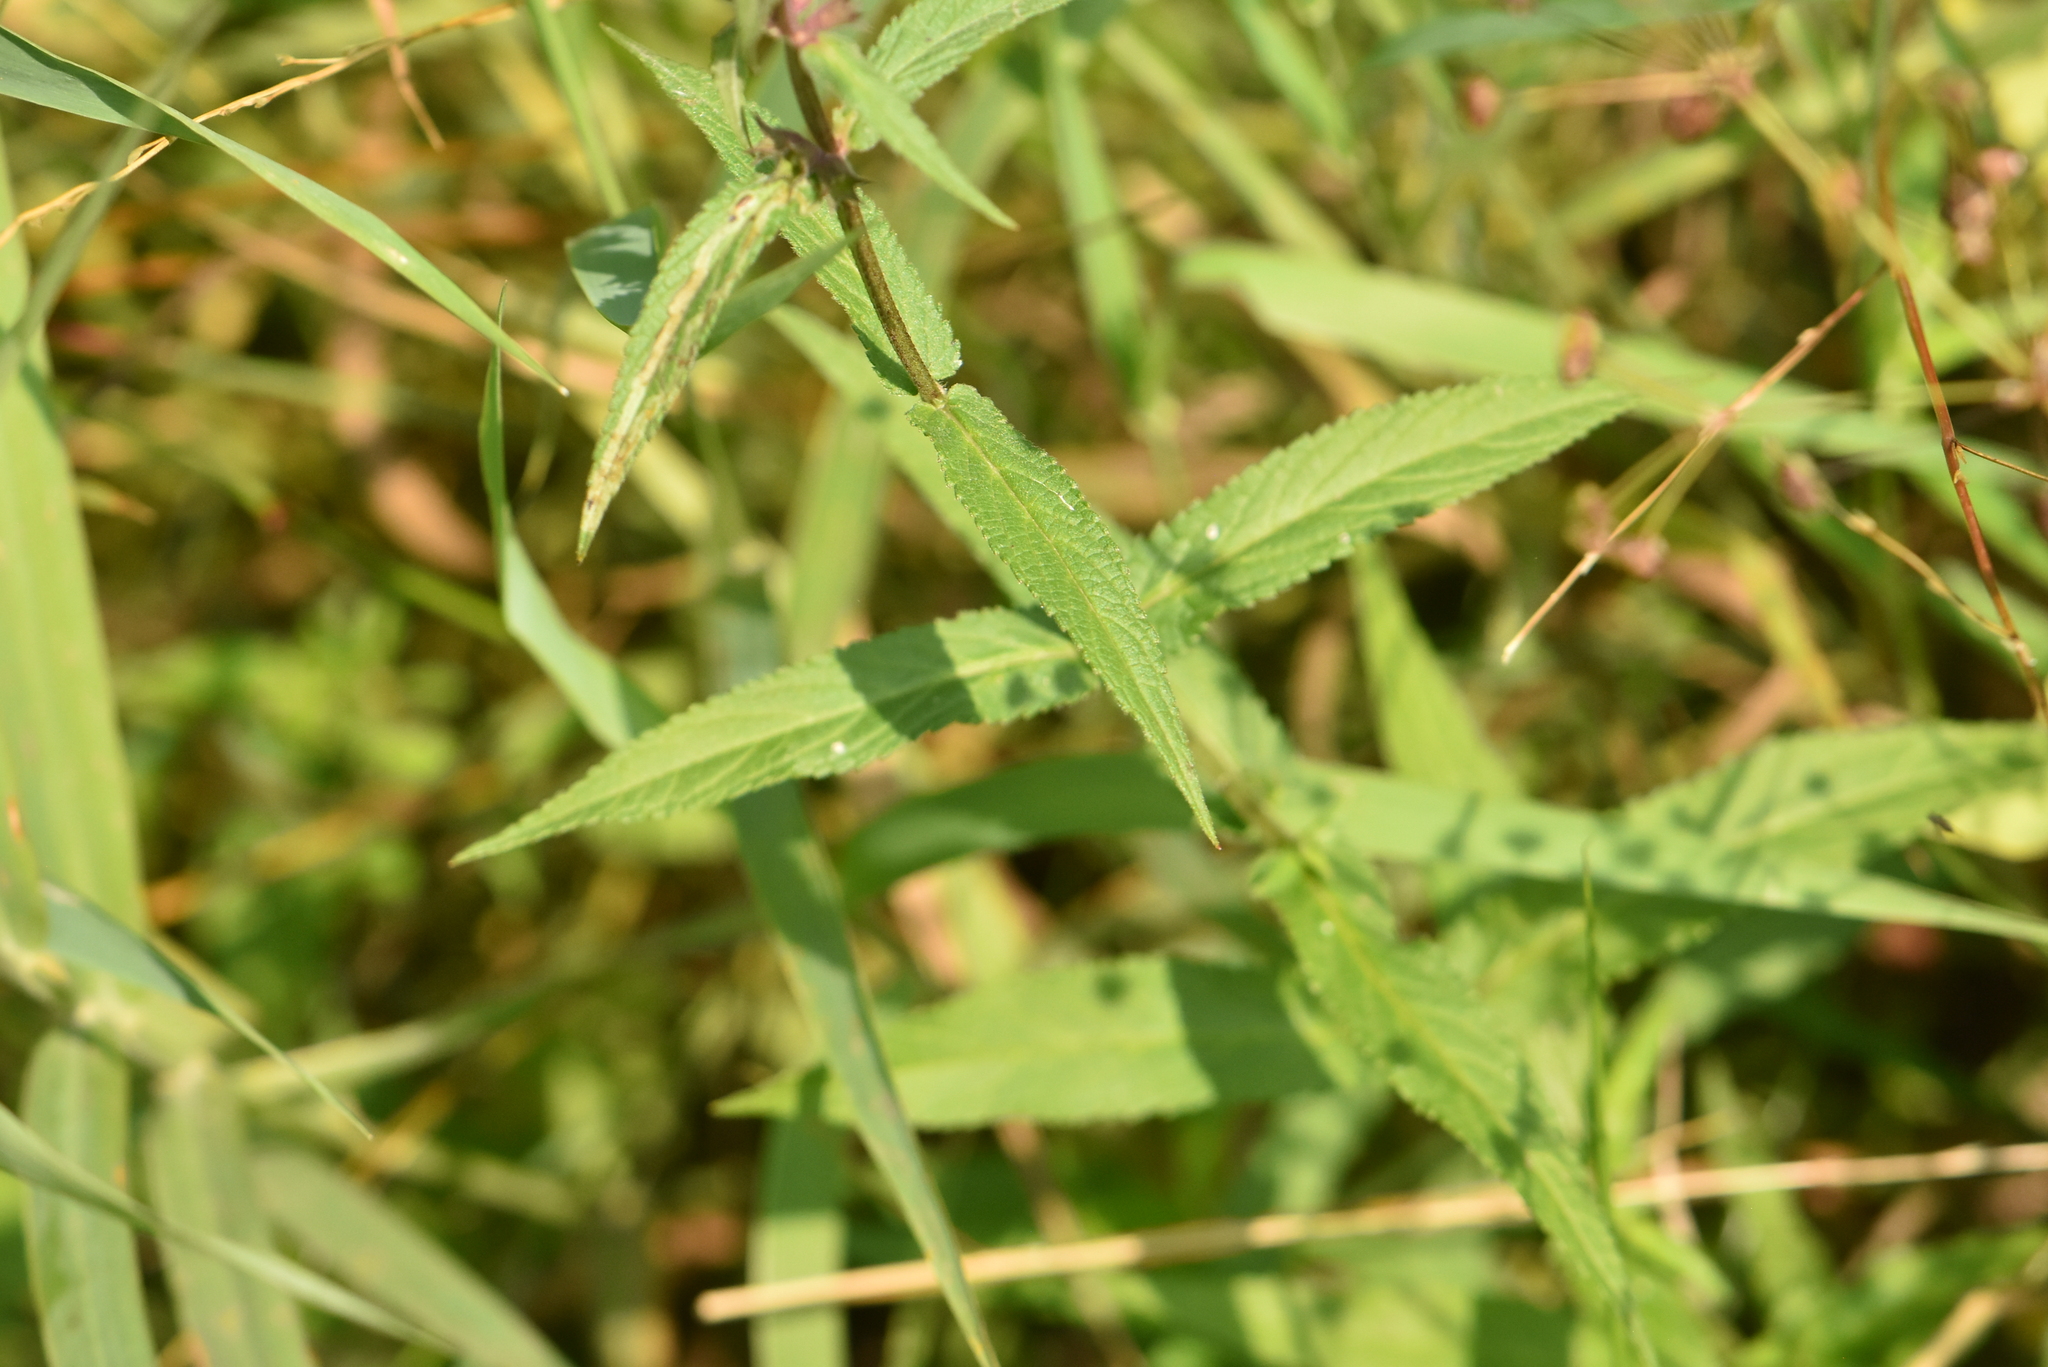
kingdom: Plantae
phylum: Tracheophyta
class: Magnoliopsida
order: Lamiales
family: Lamiaceae
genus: Stachys
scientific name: Stachys palustris
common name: Marsh woundwort
